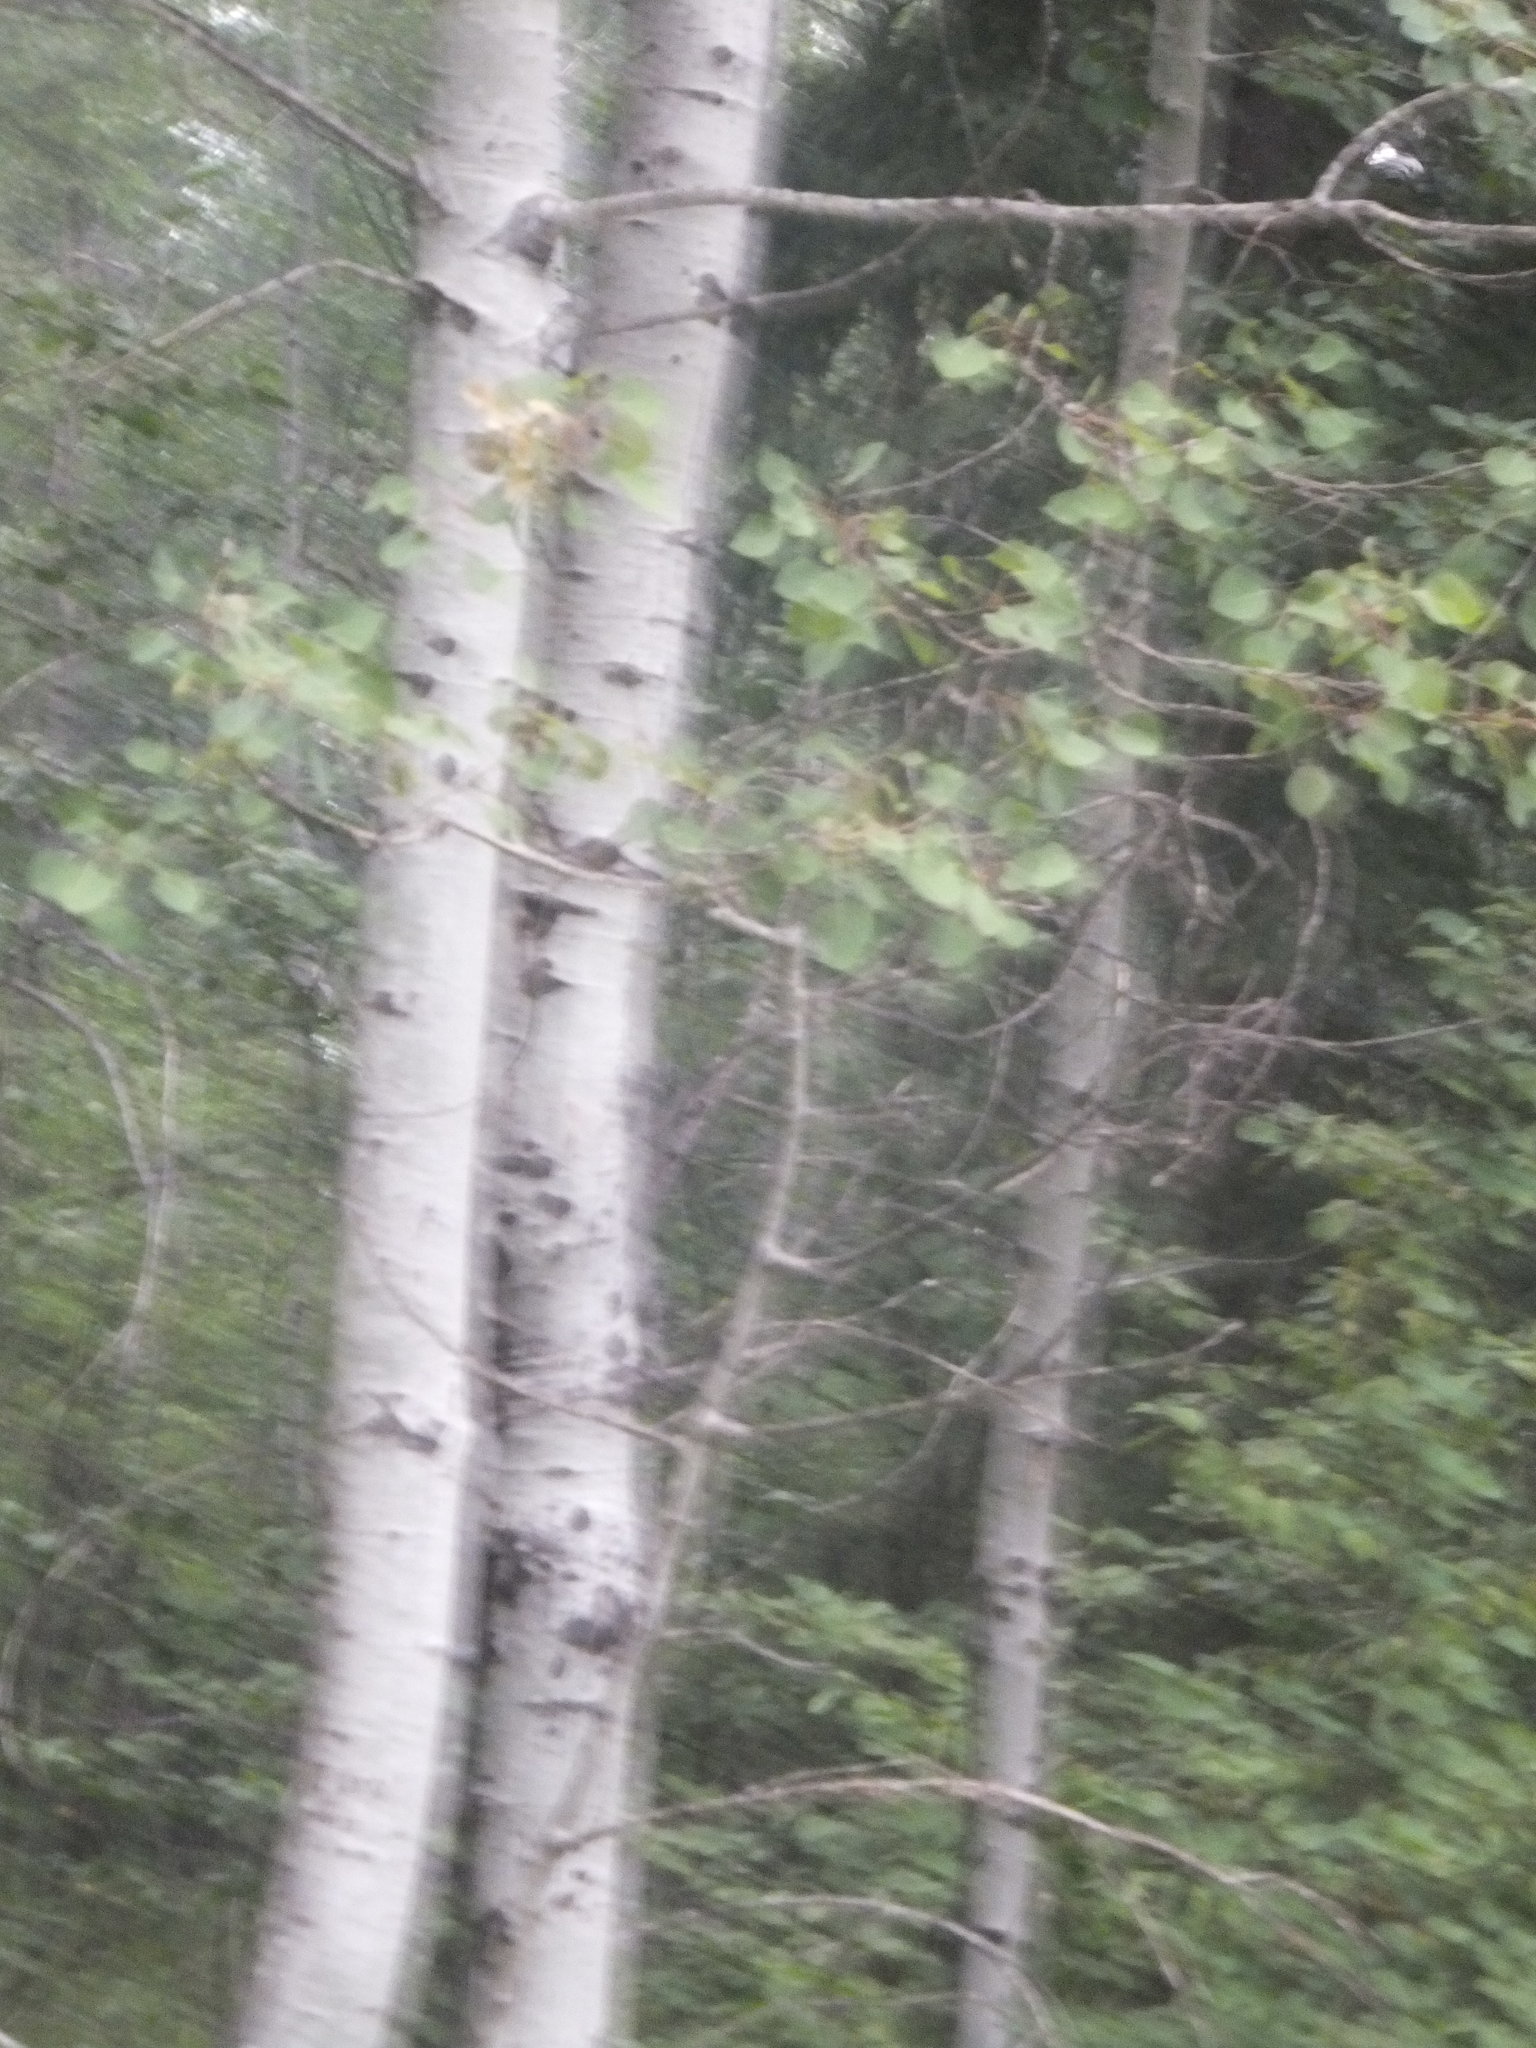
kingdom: Plantae
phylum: Tracheophyta
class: Magnoliopsida
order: Malpighiales
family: Salicaceae
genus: Populus
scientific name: Populus tremuloides
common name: Quaking aspen
